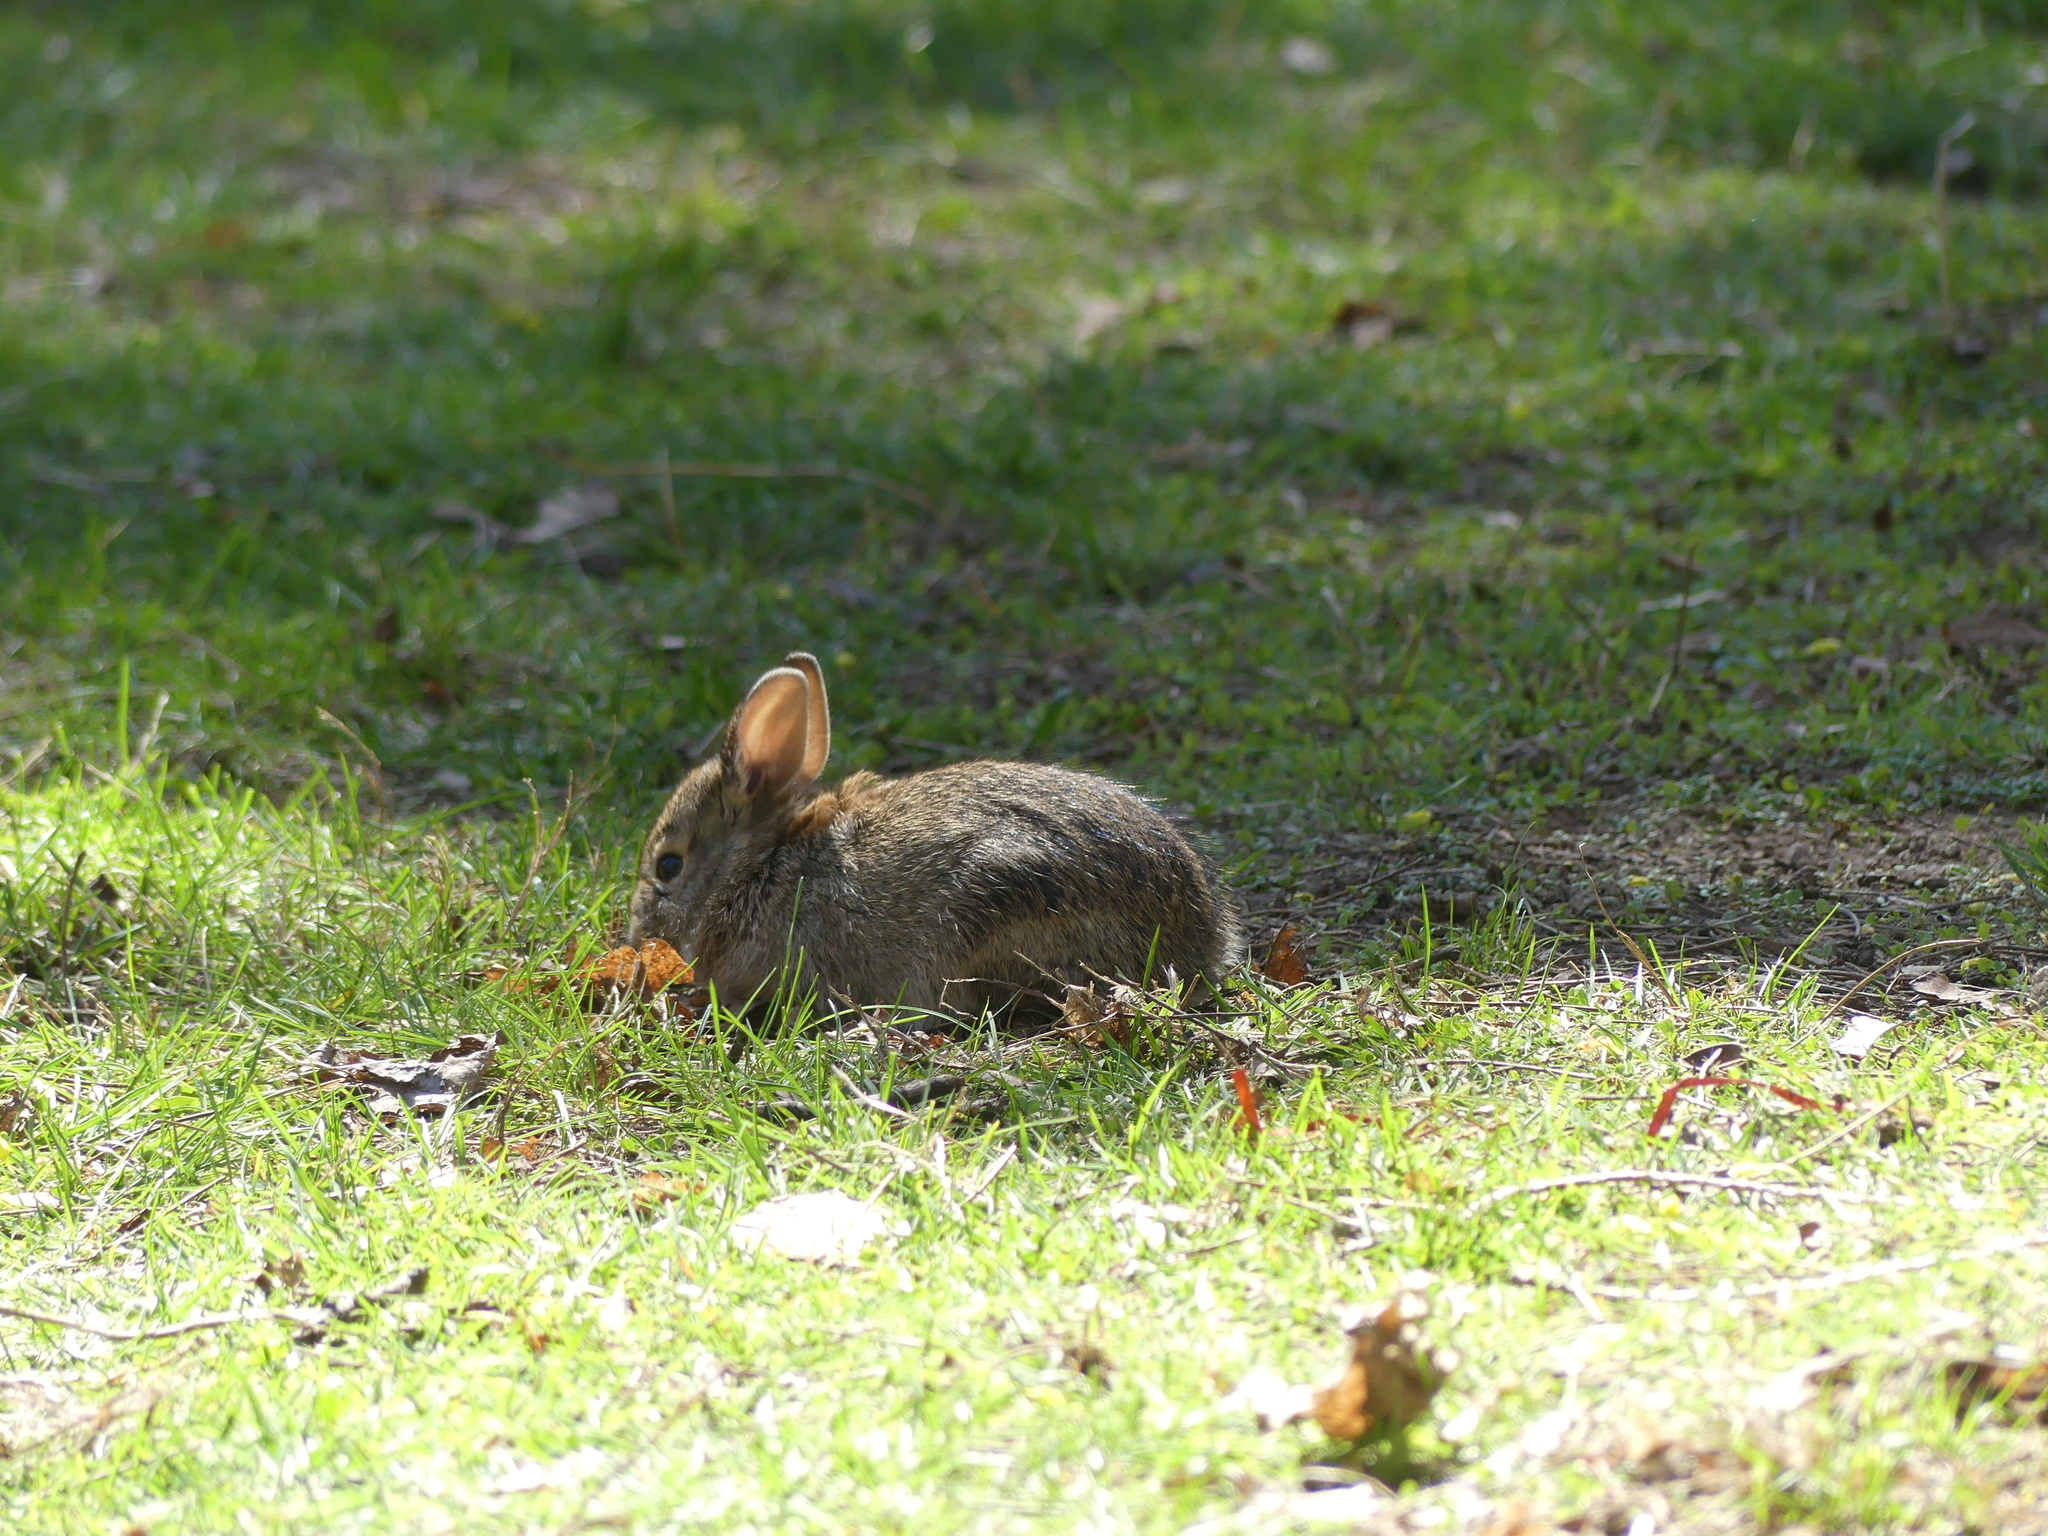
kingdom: Animalia
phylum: Chordata
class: Mammalia
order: Lagomorpha
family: Leporidae
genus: Sylvilagus
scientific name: Sylvilagus floridanus
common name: Eastern cottontail
